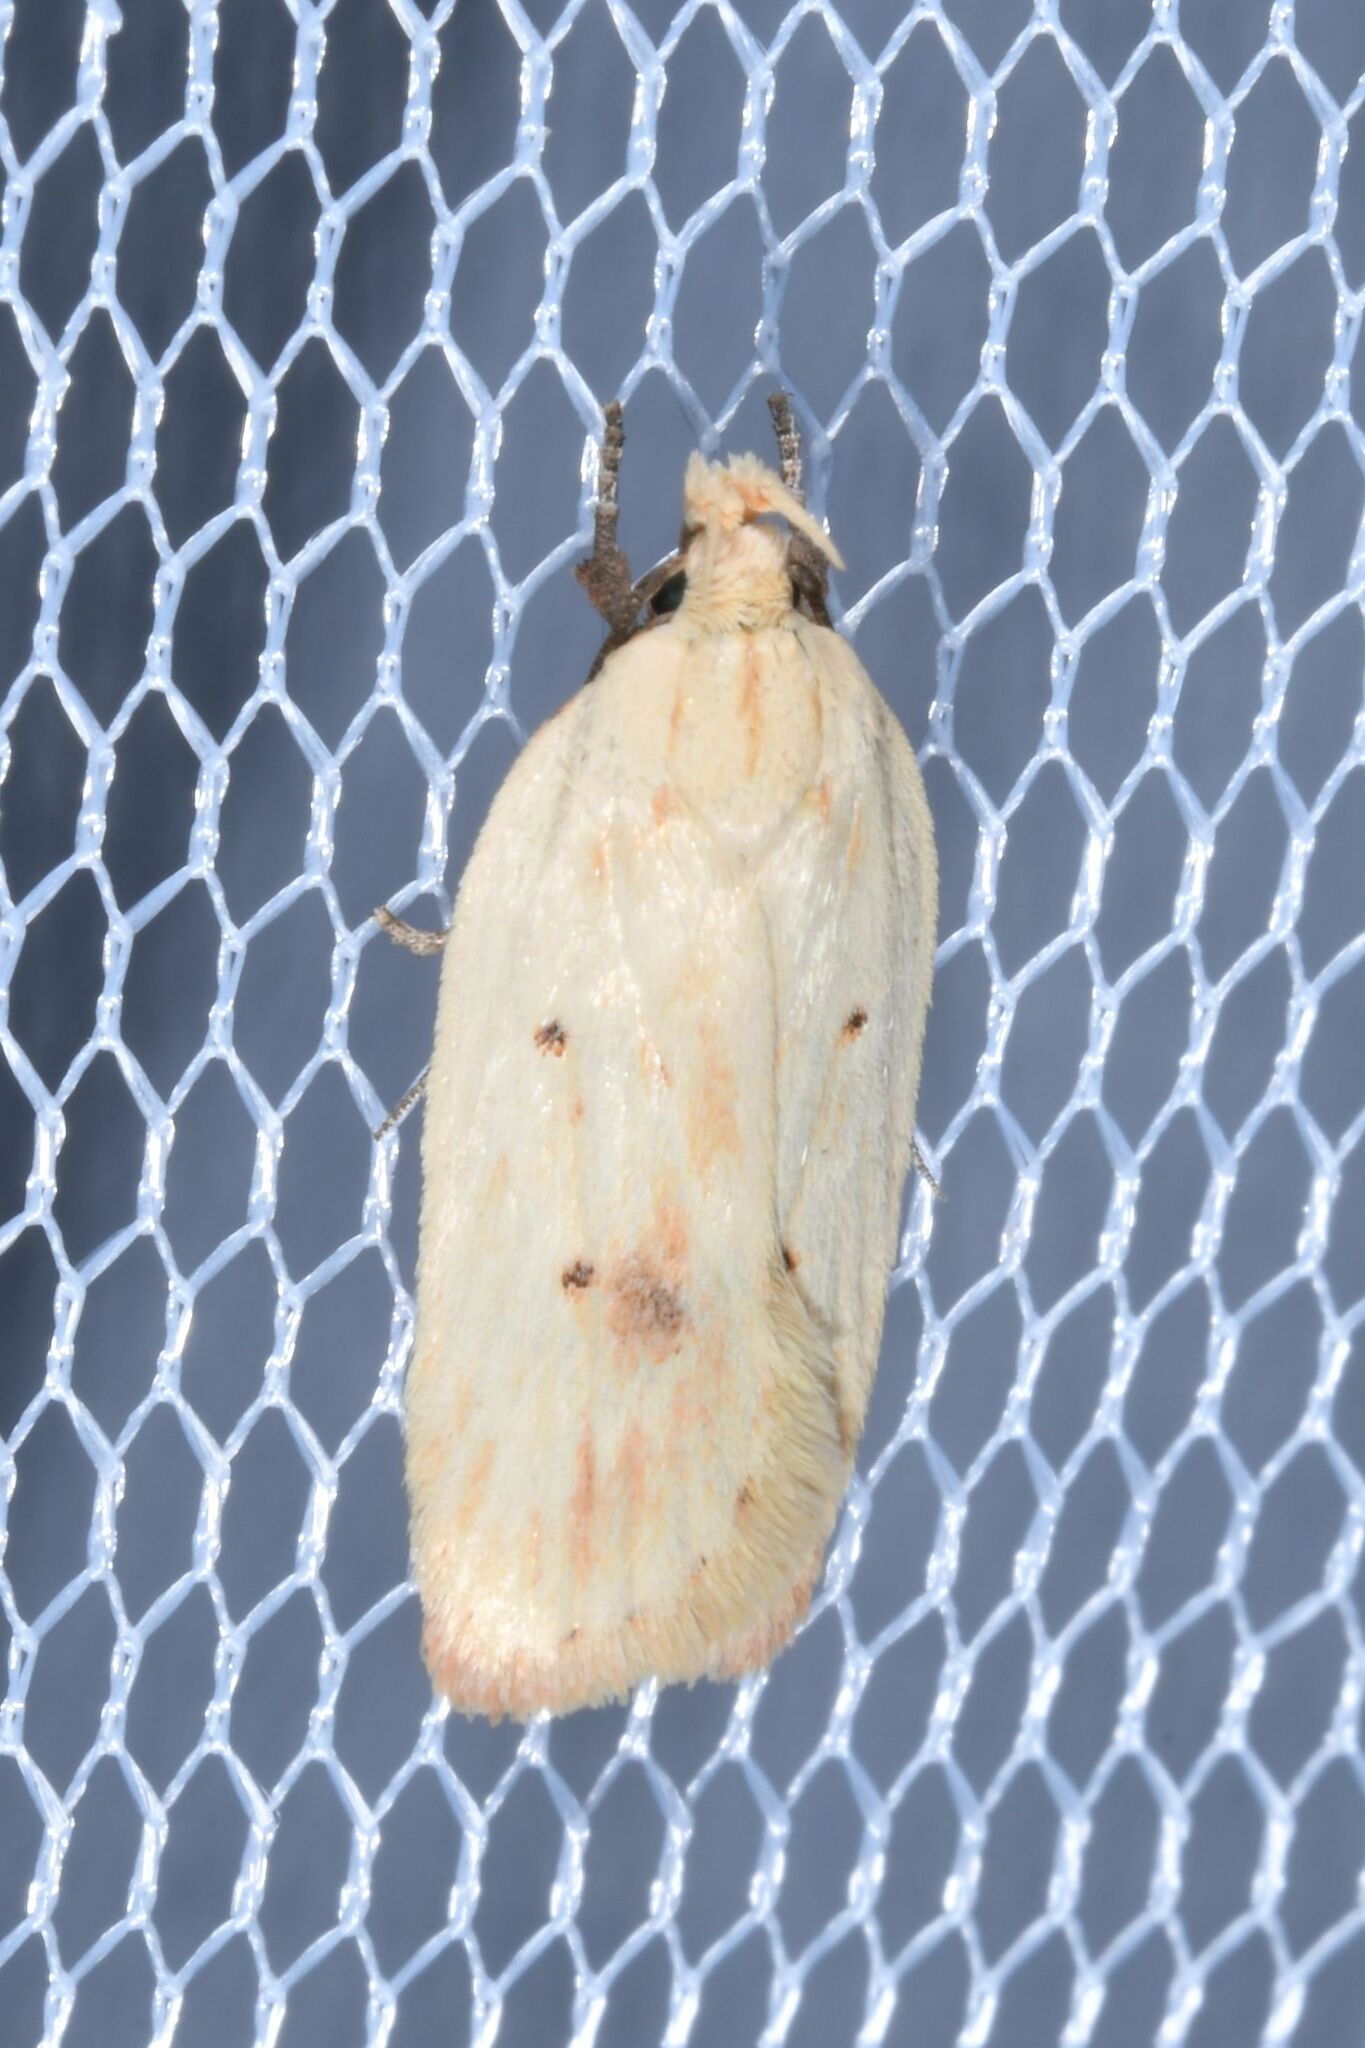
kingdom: Animalia
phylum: Arthropoda
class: Insecta
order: Lepidoptera
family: Depressariidae
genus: Agonopterix
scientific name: Agonopterix kaekeritziana
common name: Straw flat-body
